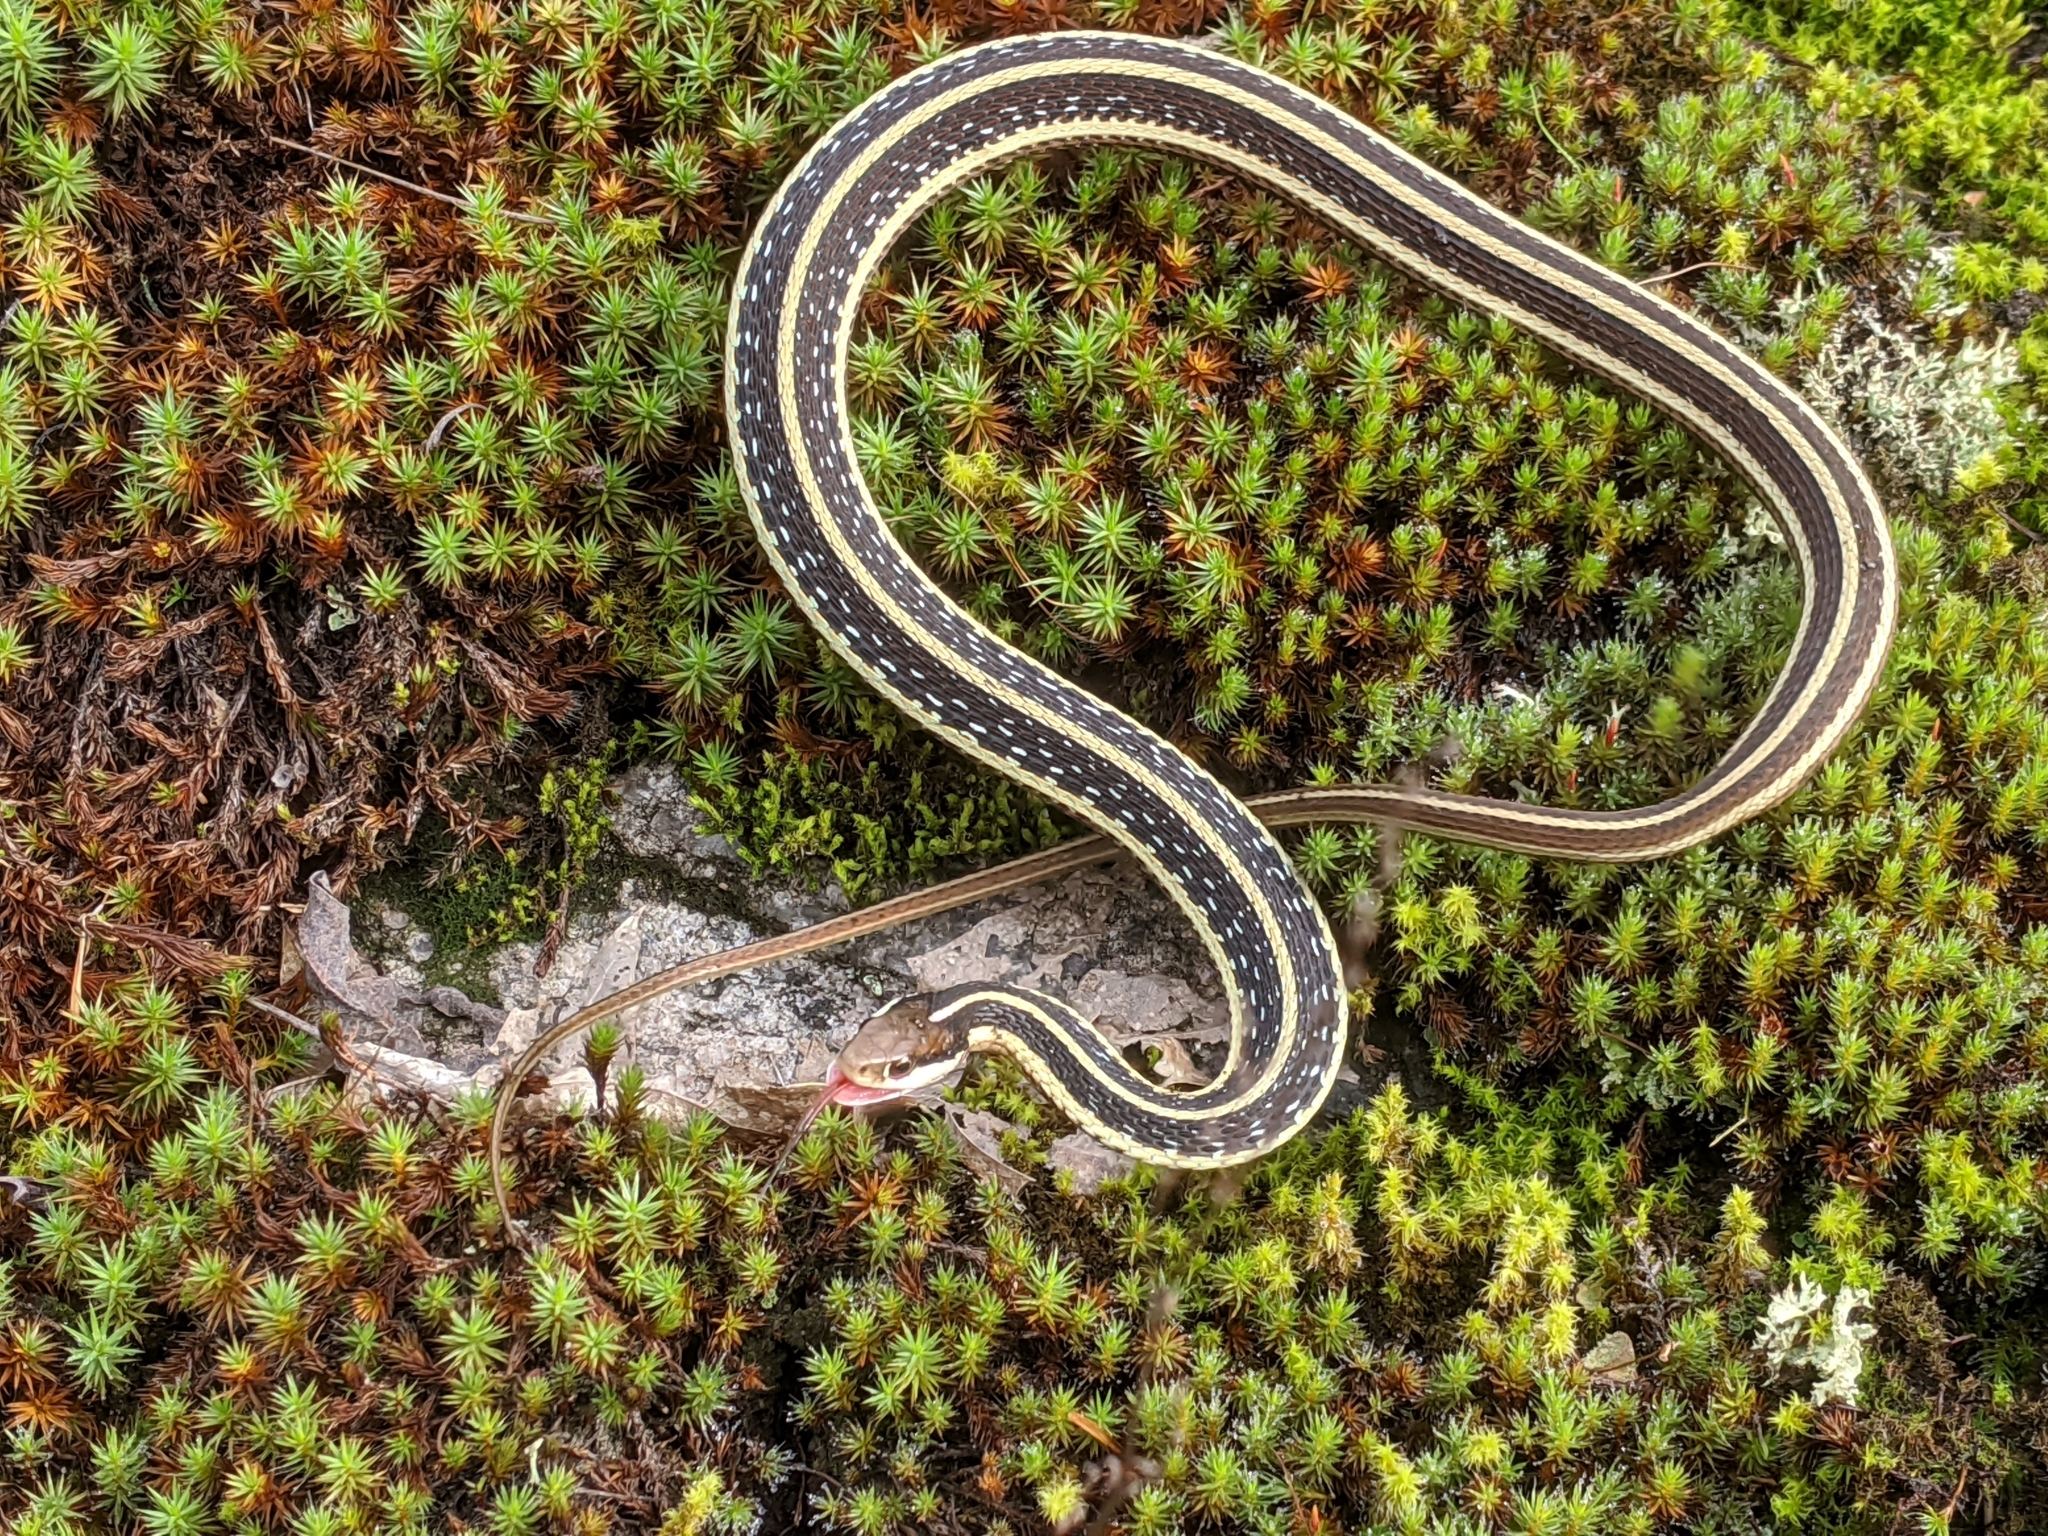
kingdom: Animalia
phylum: Chordata
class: Squamata
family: Colubridae
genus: Thamnophis
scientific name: Thamnophis saurita
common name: Eastern ribbonsnake
